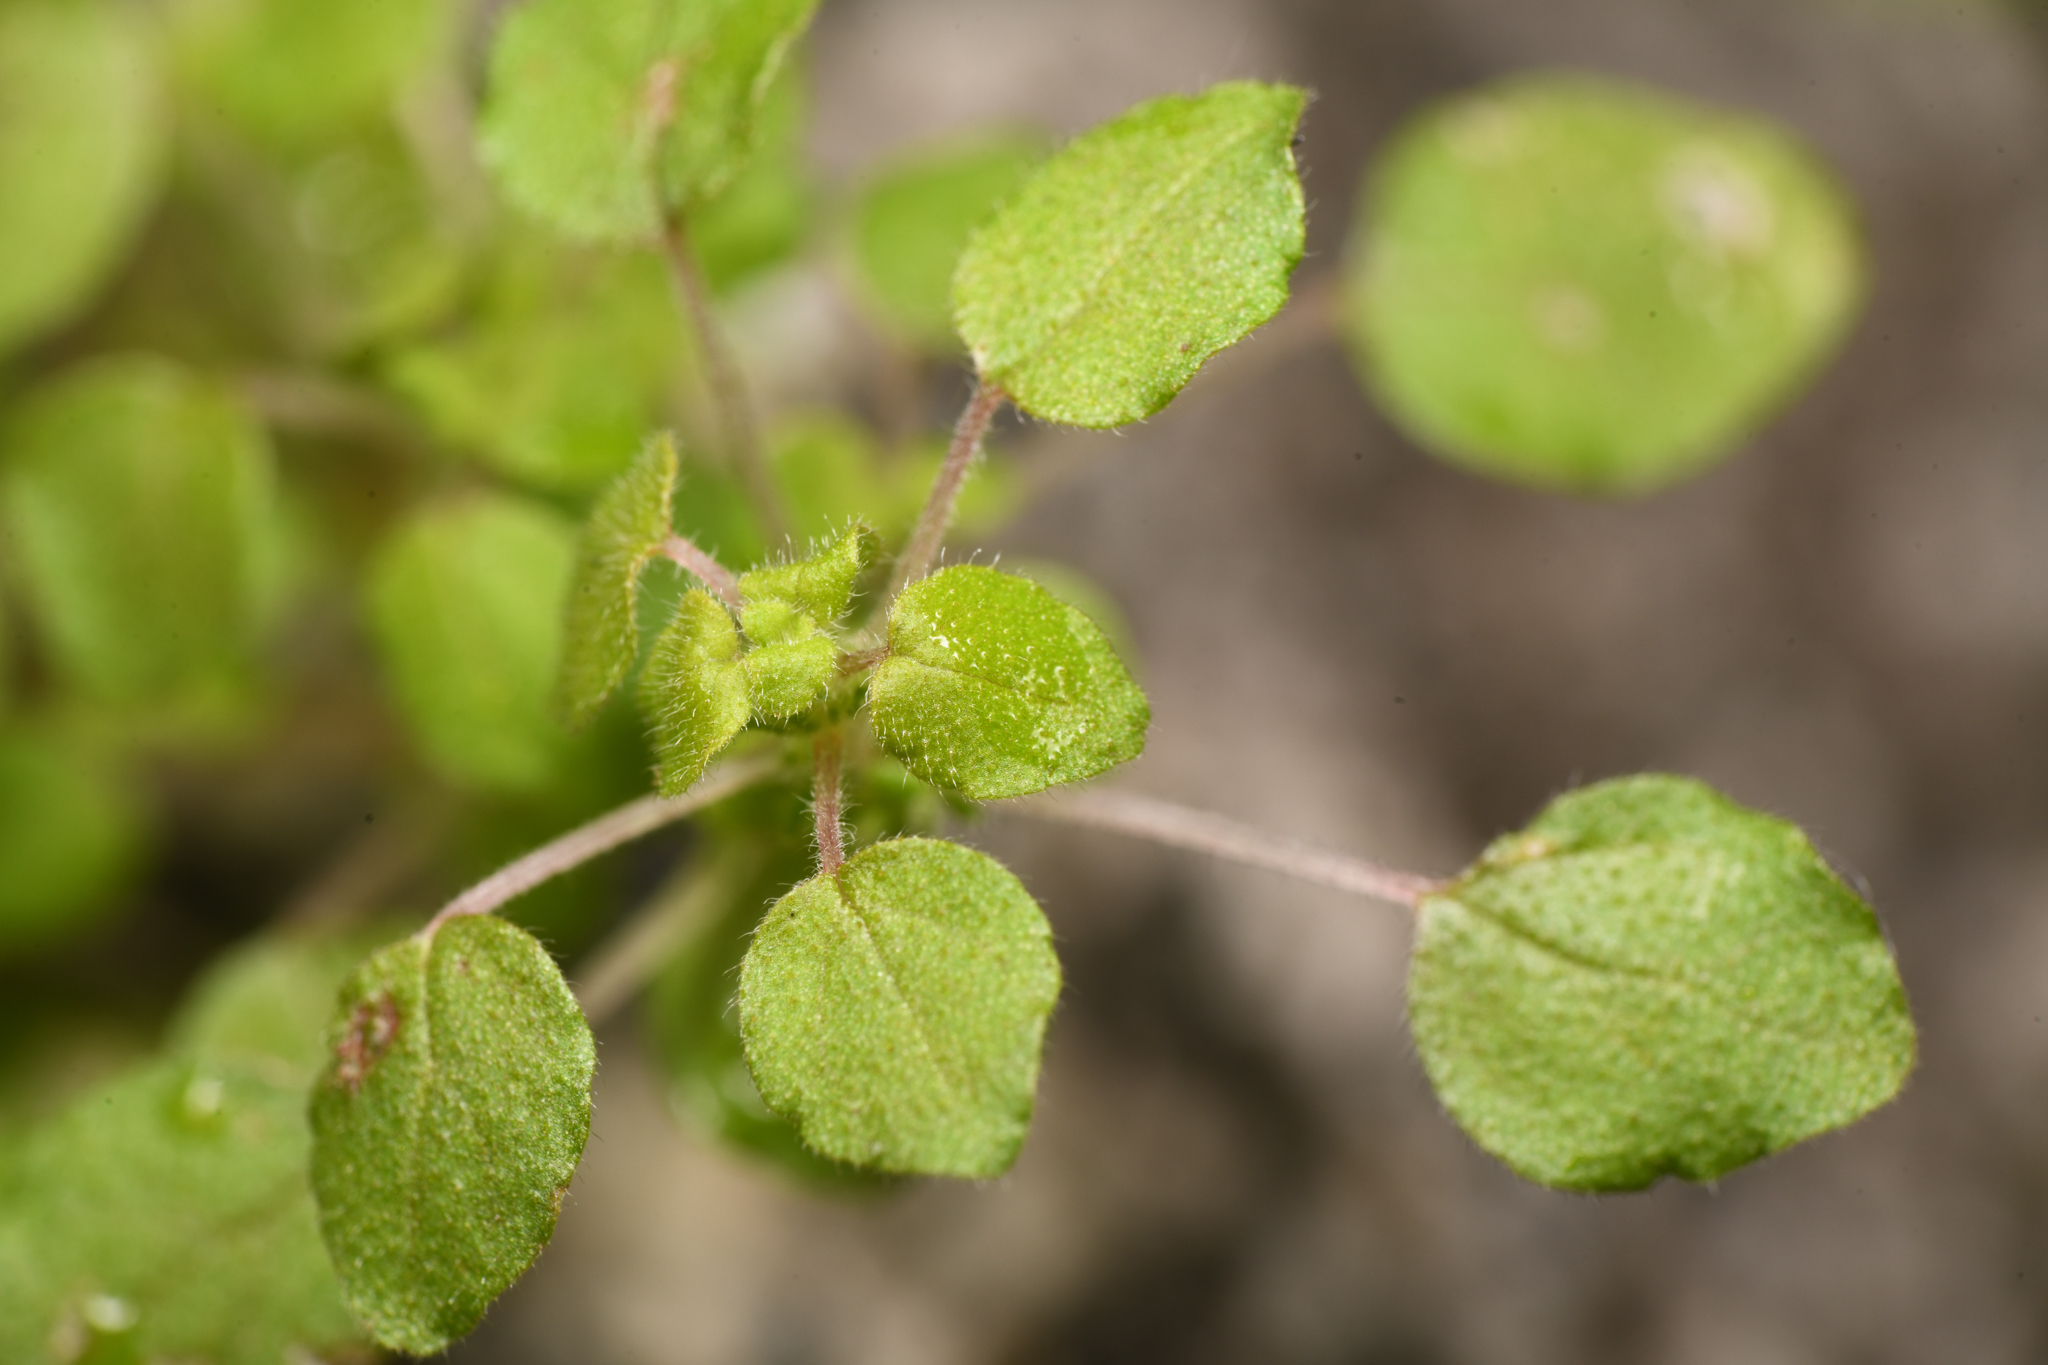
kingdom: Plantae
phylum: Tracheophyta
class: Magnoliopsida
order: Rosales
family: Urticaceae
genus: Parietaria
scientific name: Parietaria hespera
